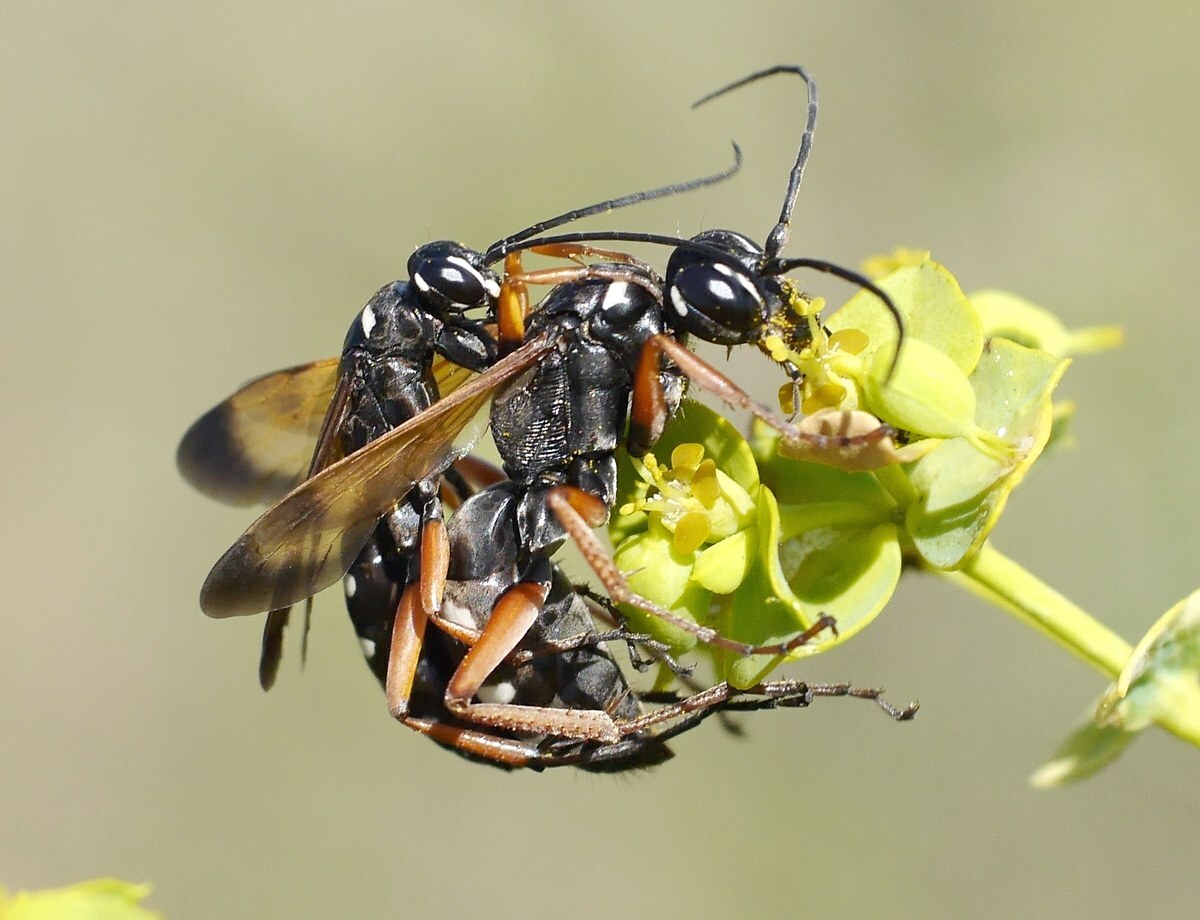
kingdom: Animalia
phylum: Arthropoda
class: Insecta
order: Hymenoptera
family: Pompilidae
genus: Cryptocheilus
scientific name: Cryptocheilus variabilis
